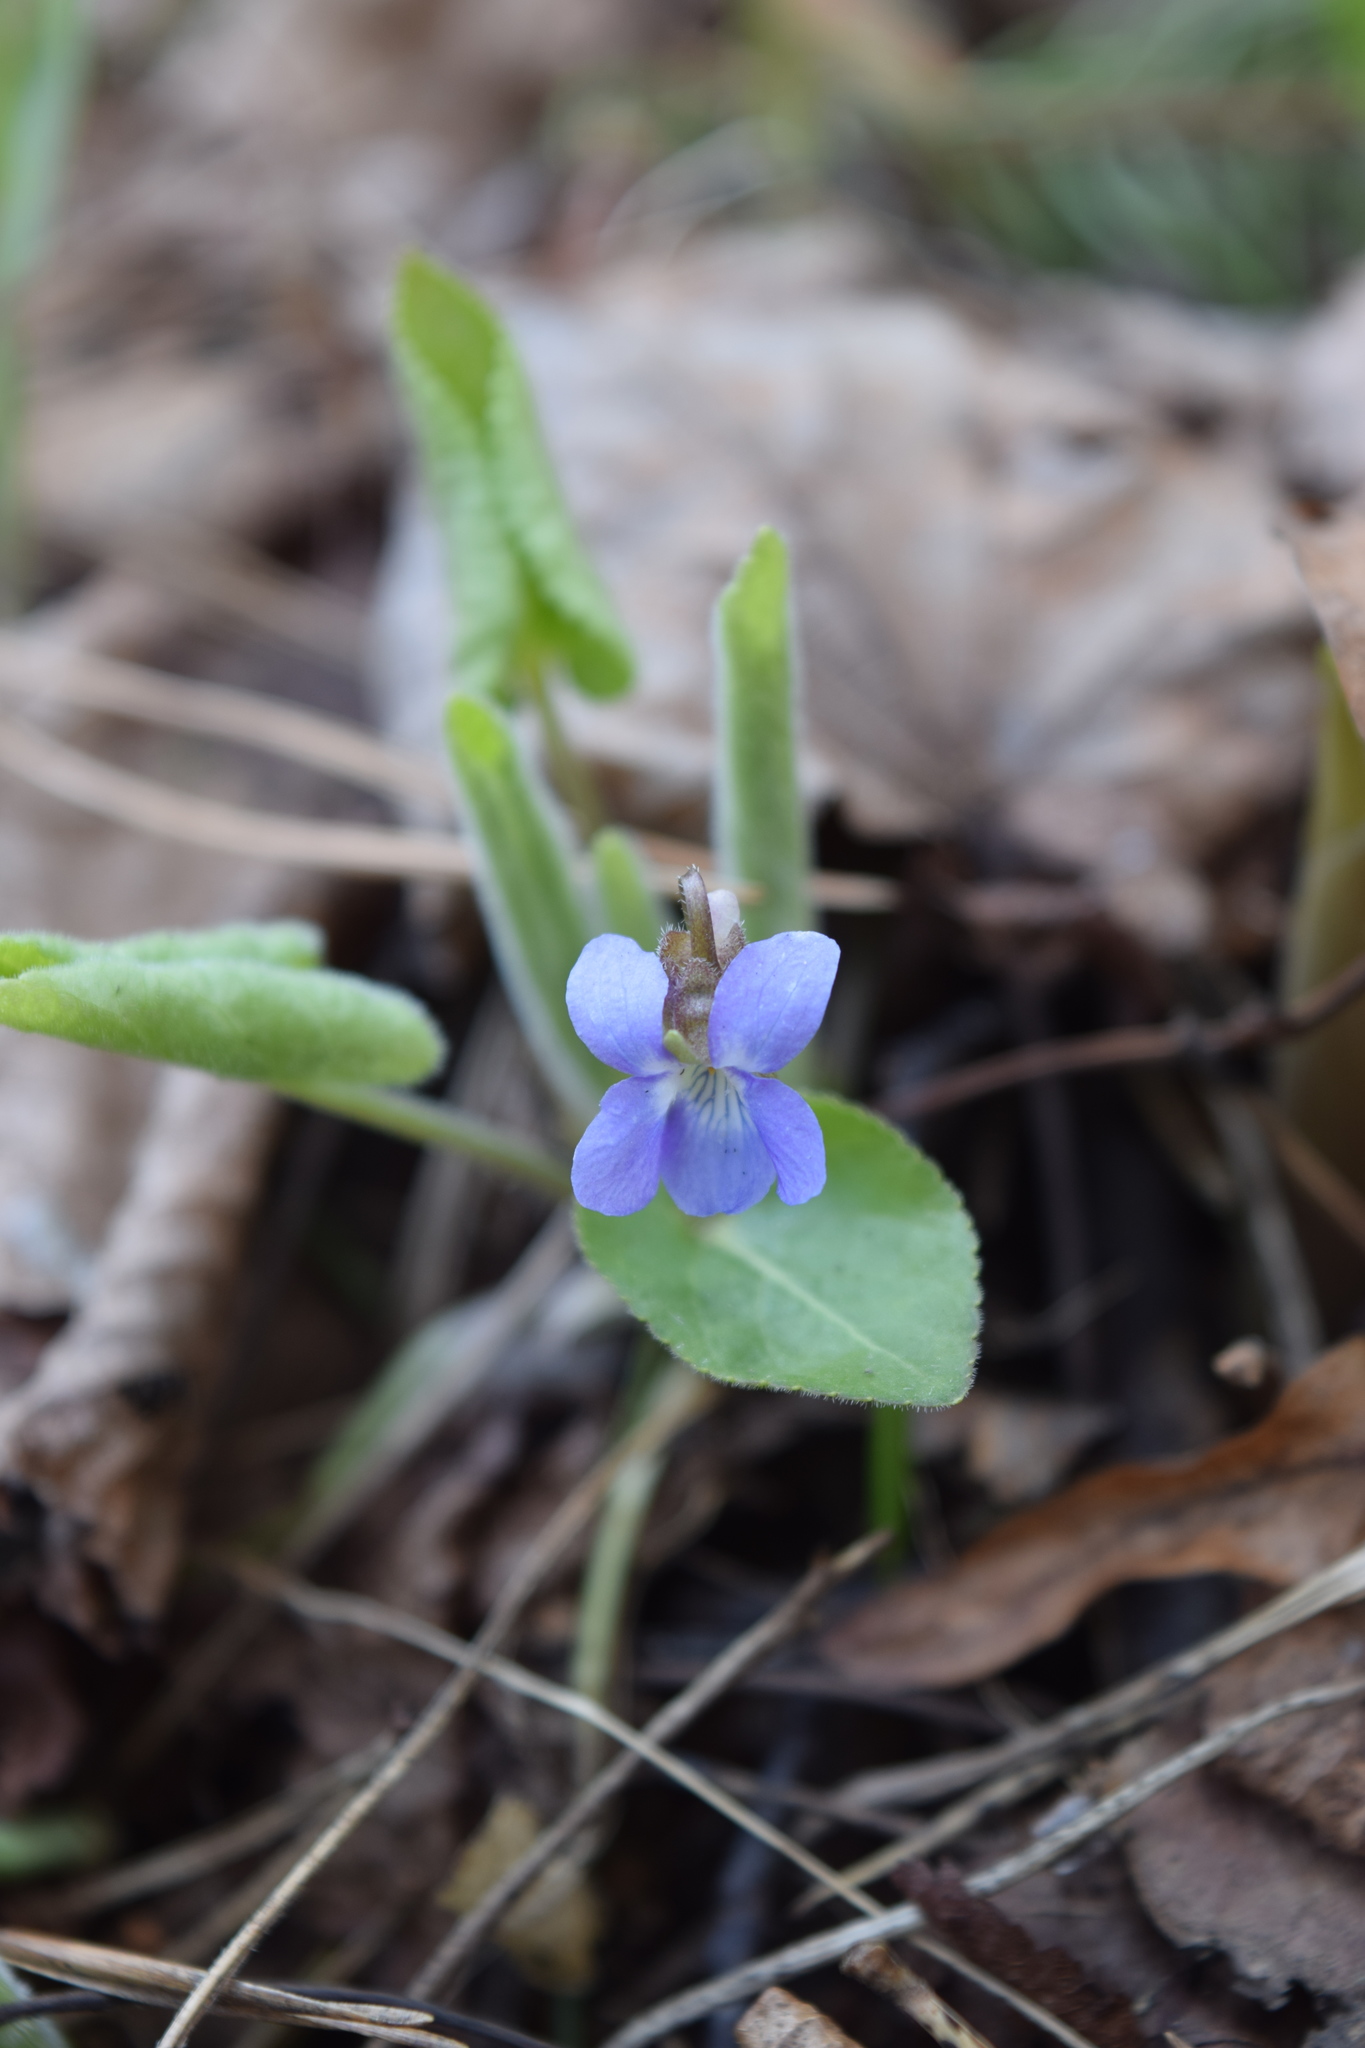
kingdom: Plantae
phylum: Tracheophyta
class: Magnoliopsida
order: Malpighiales
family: Violaceae
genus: Viola
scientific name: Viola collina
